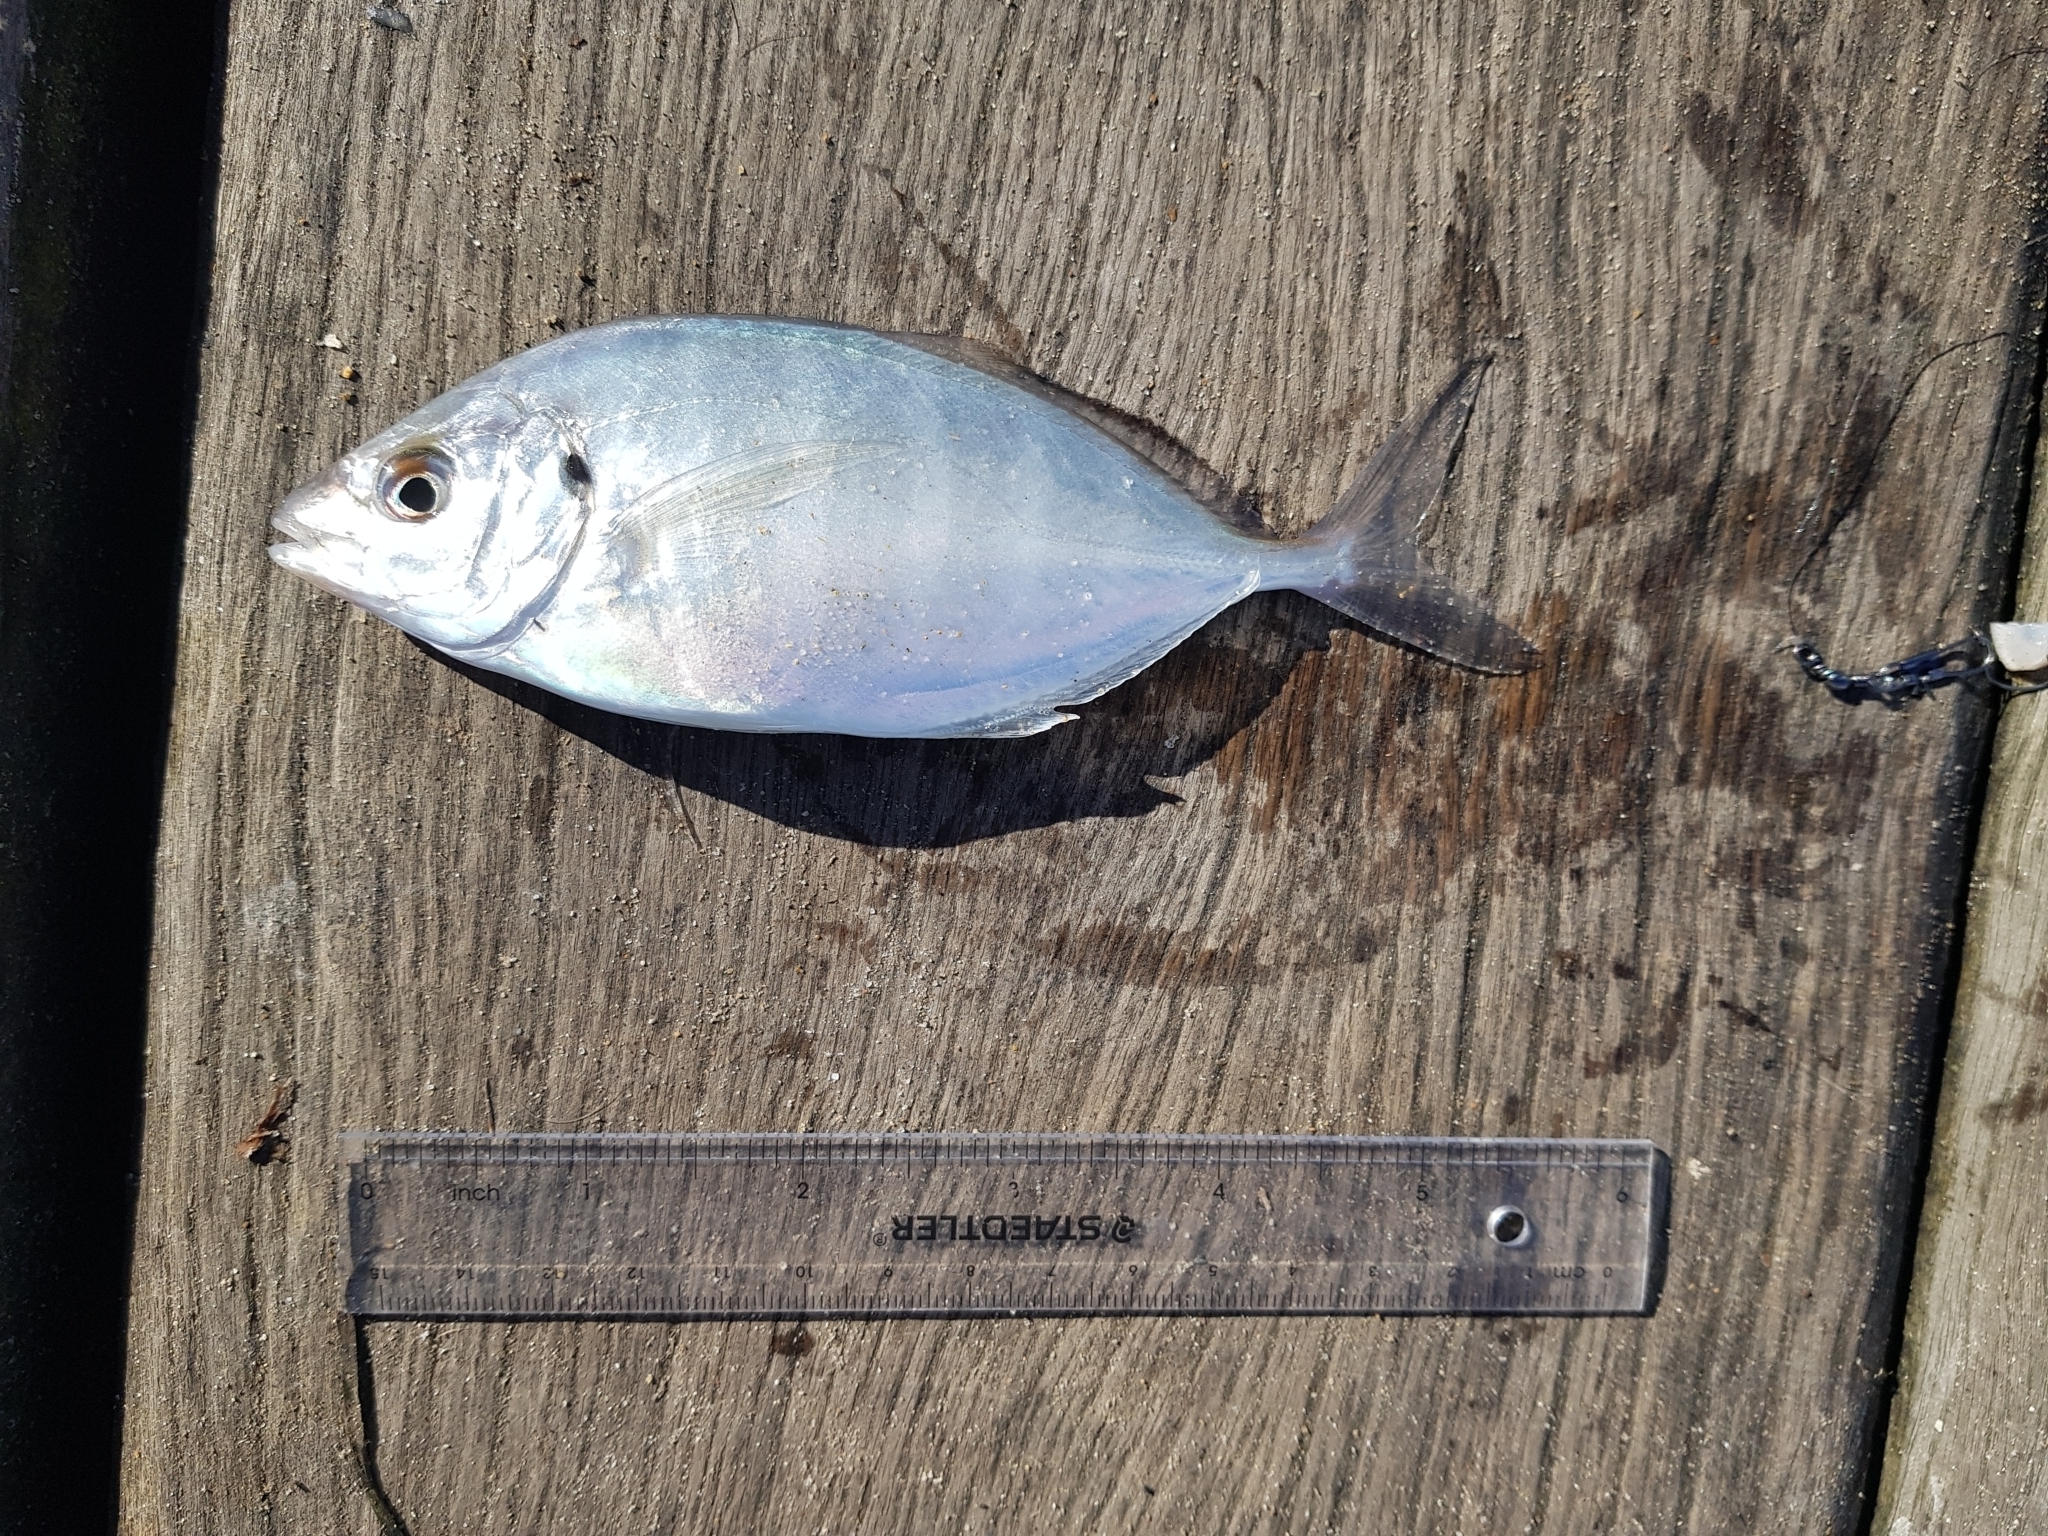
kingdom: Animalia
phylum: Chordata
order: Perciformes
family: Carangidae
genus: Pseudocaranx
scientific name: Pseudocaranx dentex
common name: White trevally
